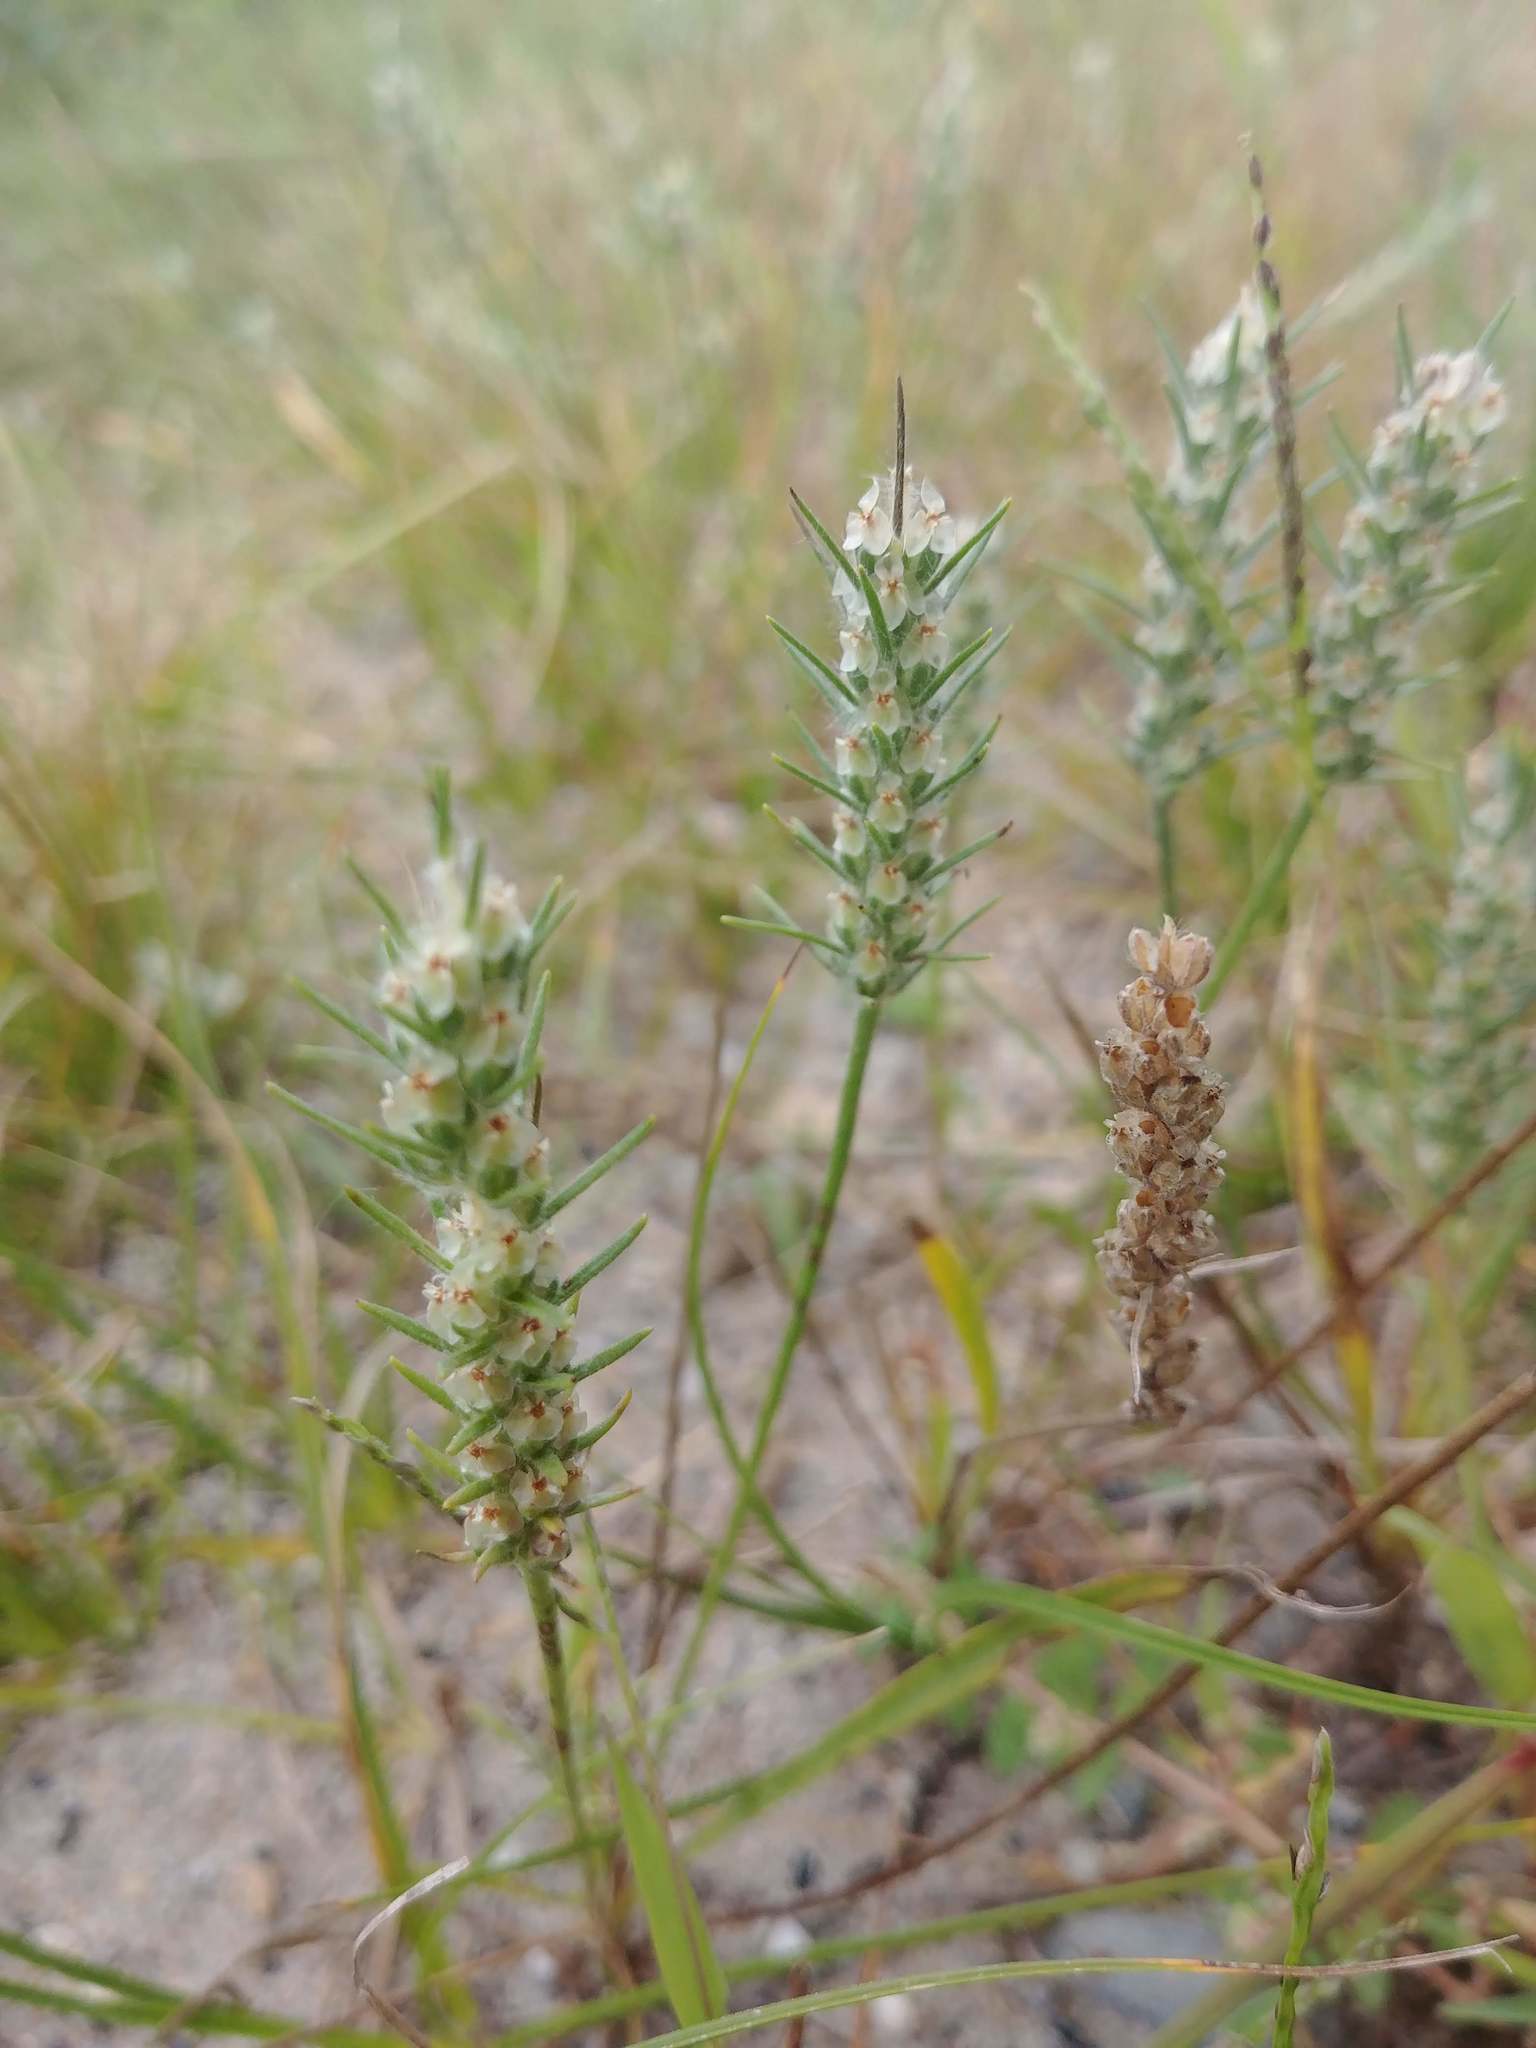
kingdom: Plantae
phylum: Tracheophyta
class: Magnoliopsida
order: Lamiales
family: Plantaginaceae
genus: Plantago
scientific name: Plantago aristata
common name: Bracted plantain
